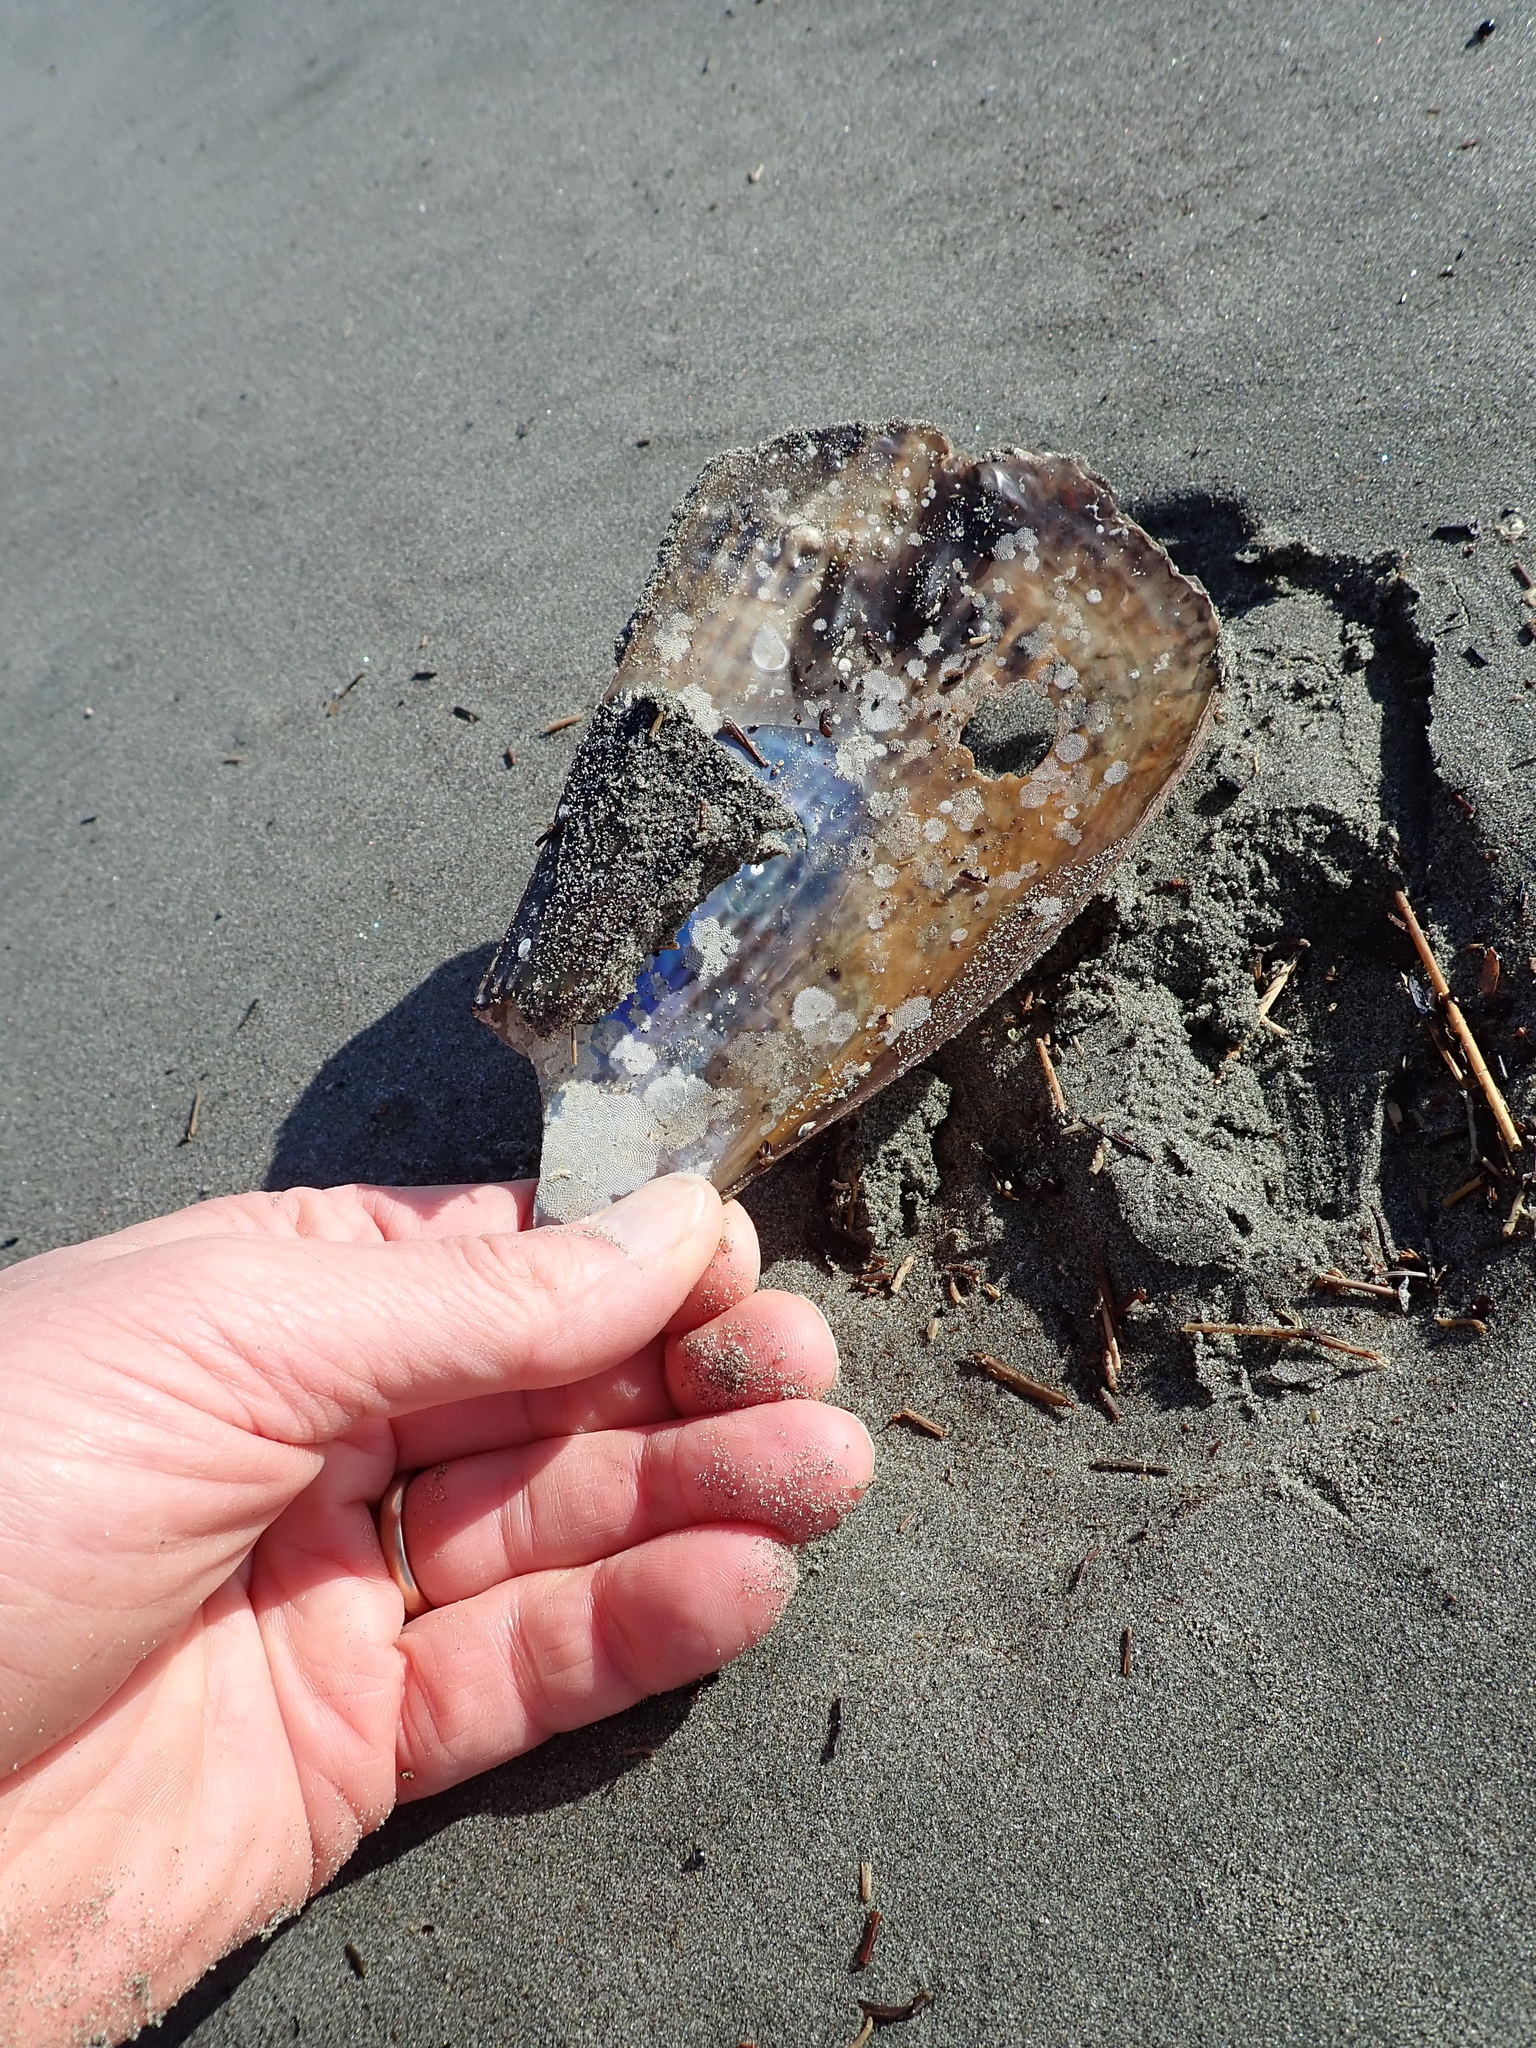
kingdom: Animalia
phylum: Mollusca
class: Bivalvia
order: Ostreida
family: Pinnidae
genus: Atrina
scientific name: Atrina zelandica
